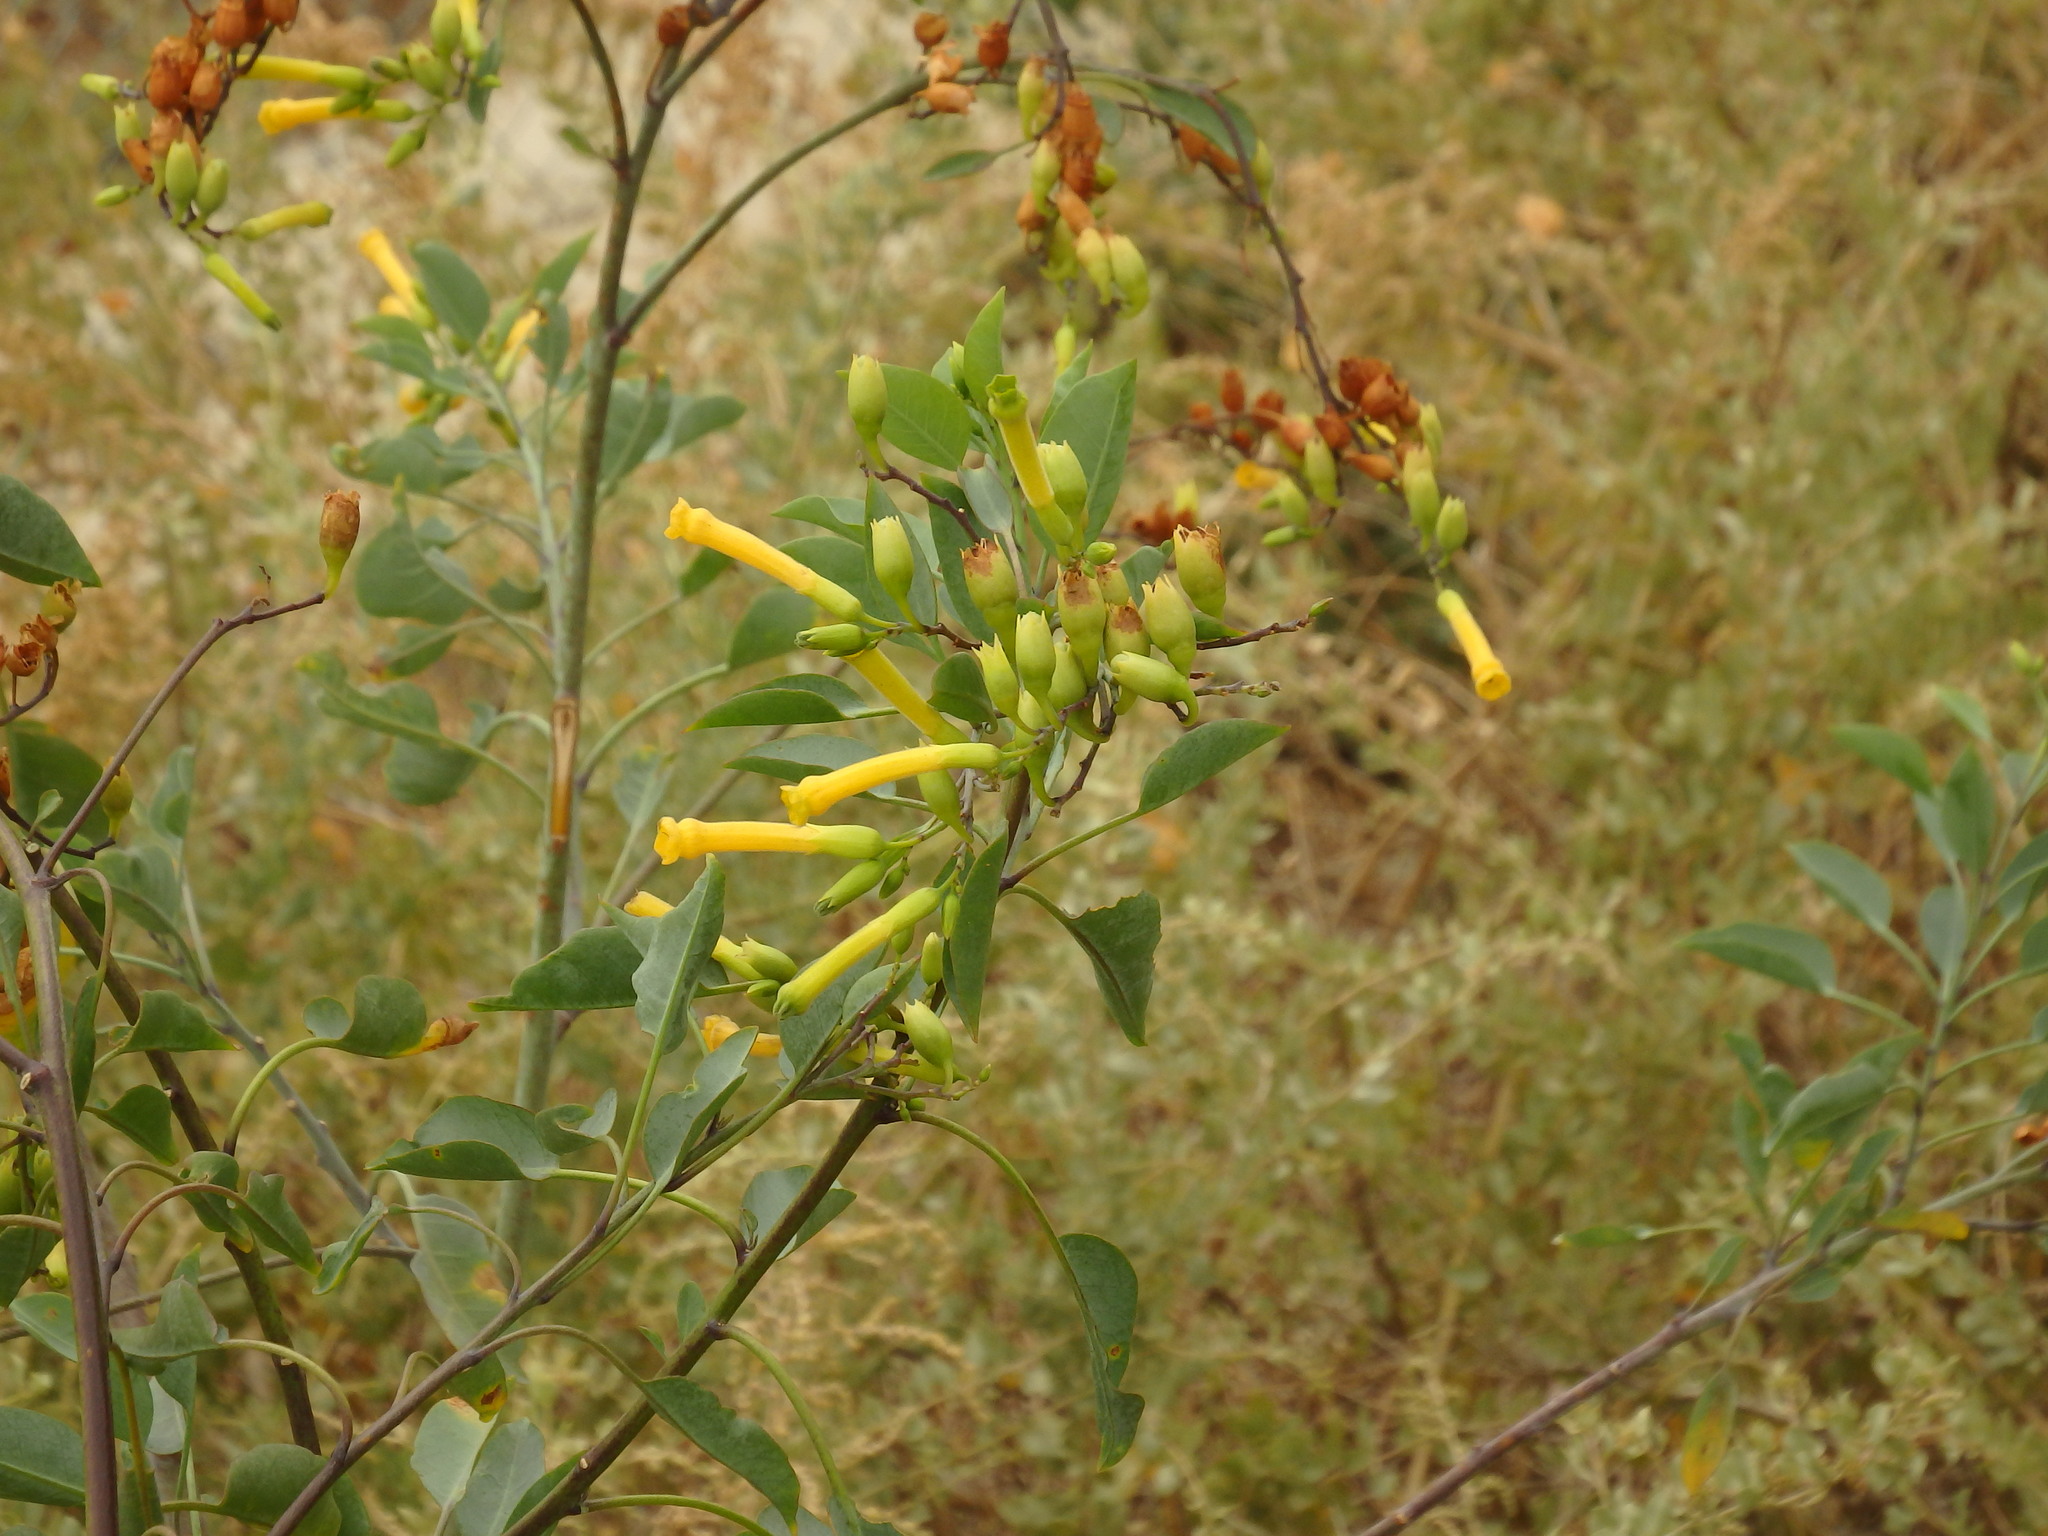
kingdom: Plantae
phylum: Tracheophyta
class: Magnoliopsida
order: Solanales
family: Solanaceae
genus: Nicotiana
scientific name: Nicotiana glauca
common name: Tree tobacco
